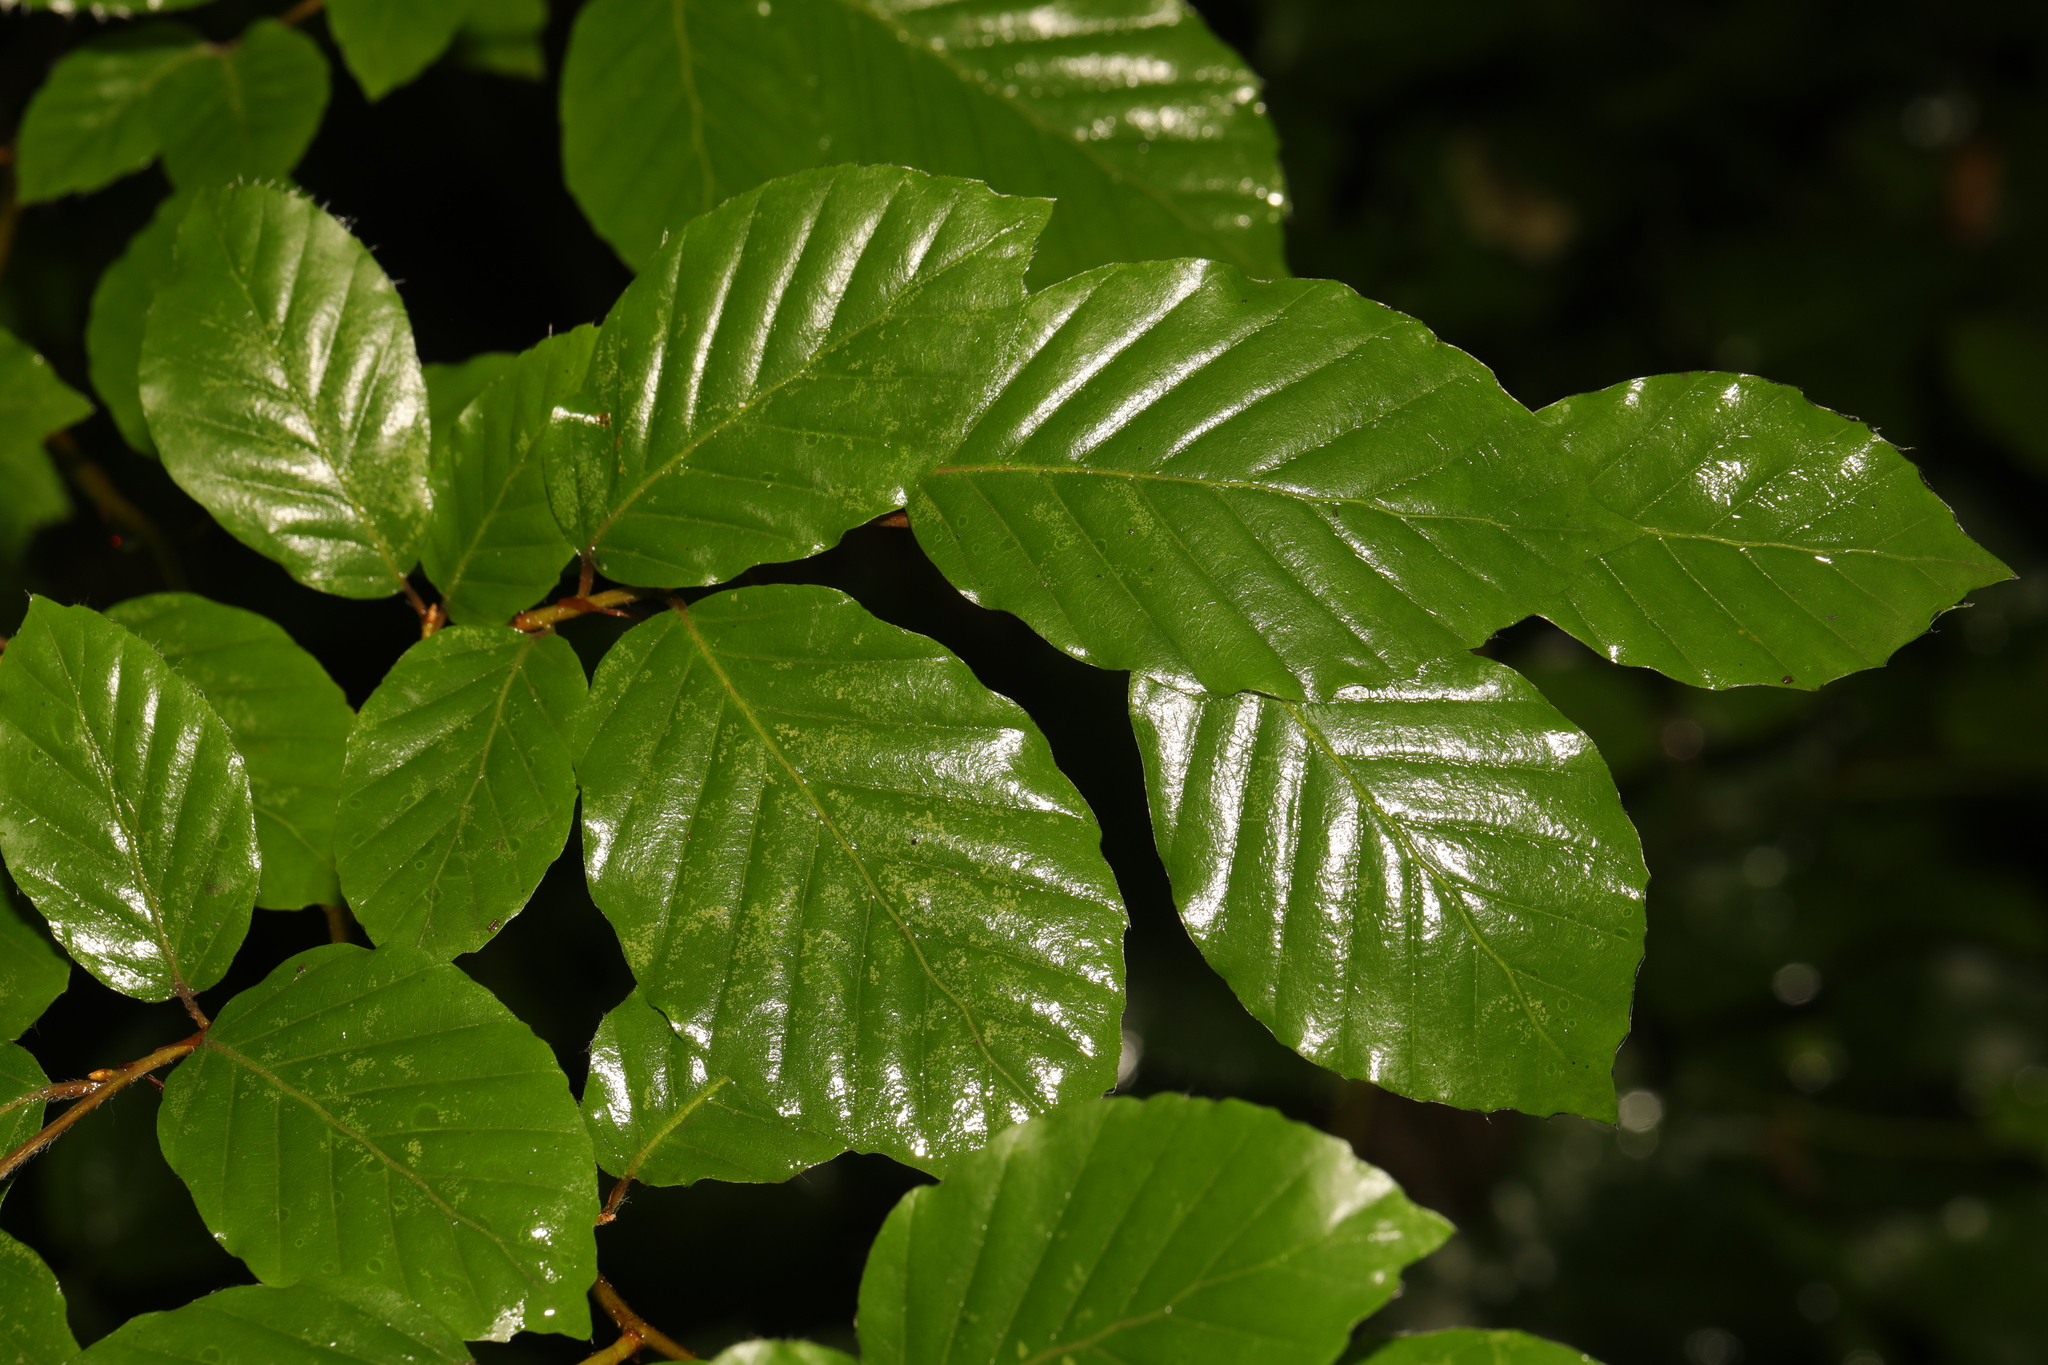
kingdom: Plantae
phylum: Tracheophyta
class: Magnoliopsida
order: Fagales
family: Fagaceae
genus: Fagus
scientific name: Fagus sylvatica
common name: Beech
